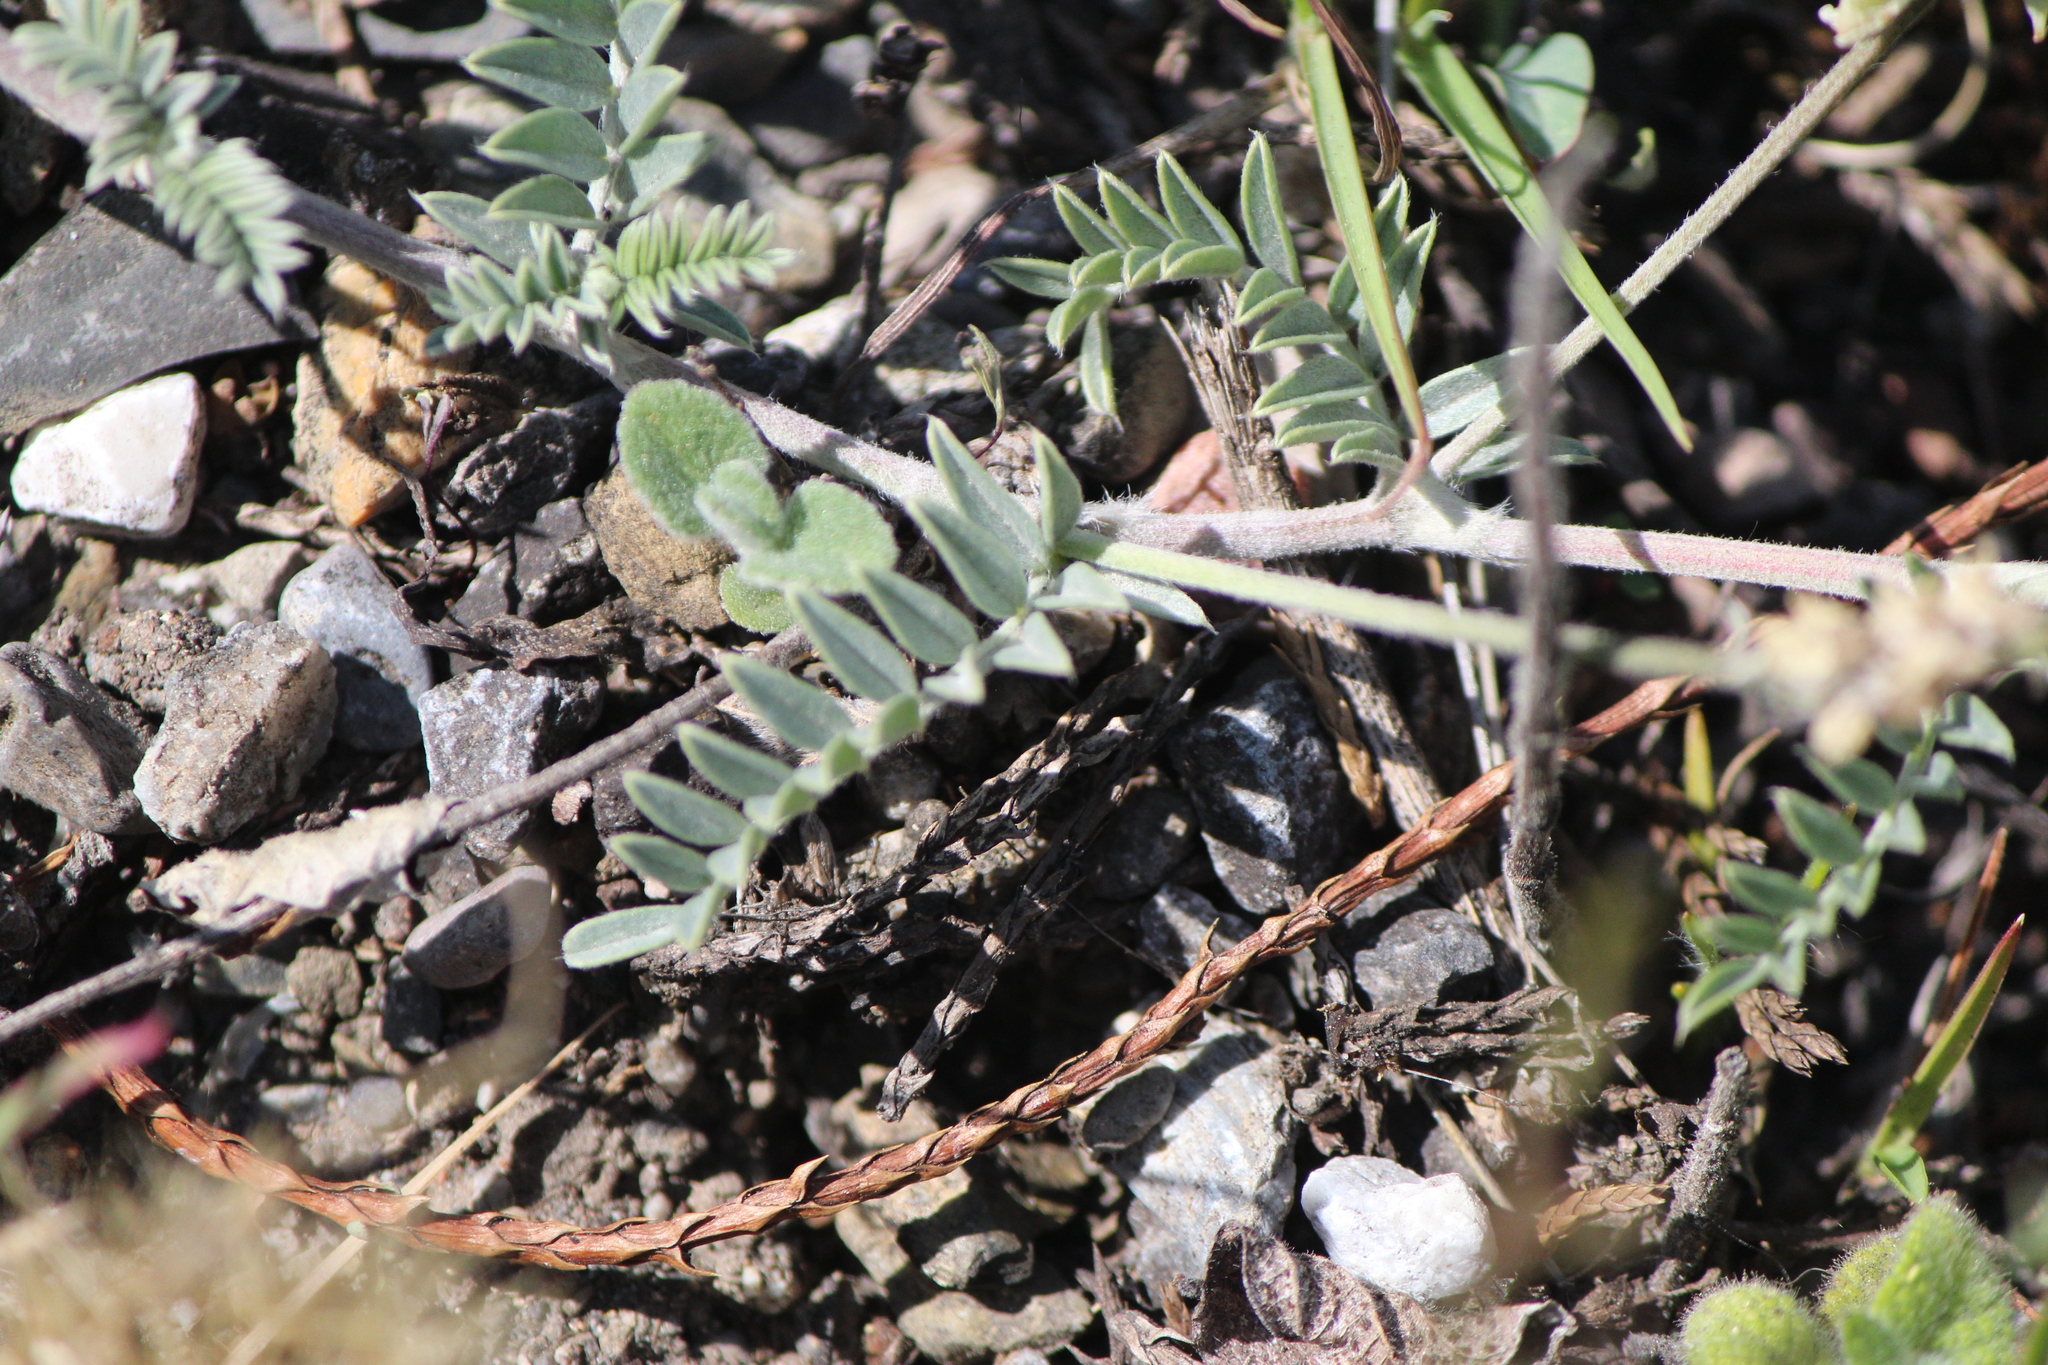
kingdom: Plantae
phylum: Tracheophyta
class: Magnoliopsida
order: Fabales
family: Fabaceae
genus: Astragalus
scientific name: Astragalus hypoleucus
